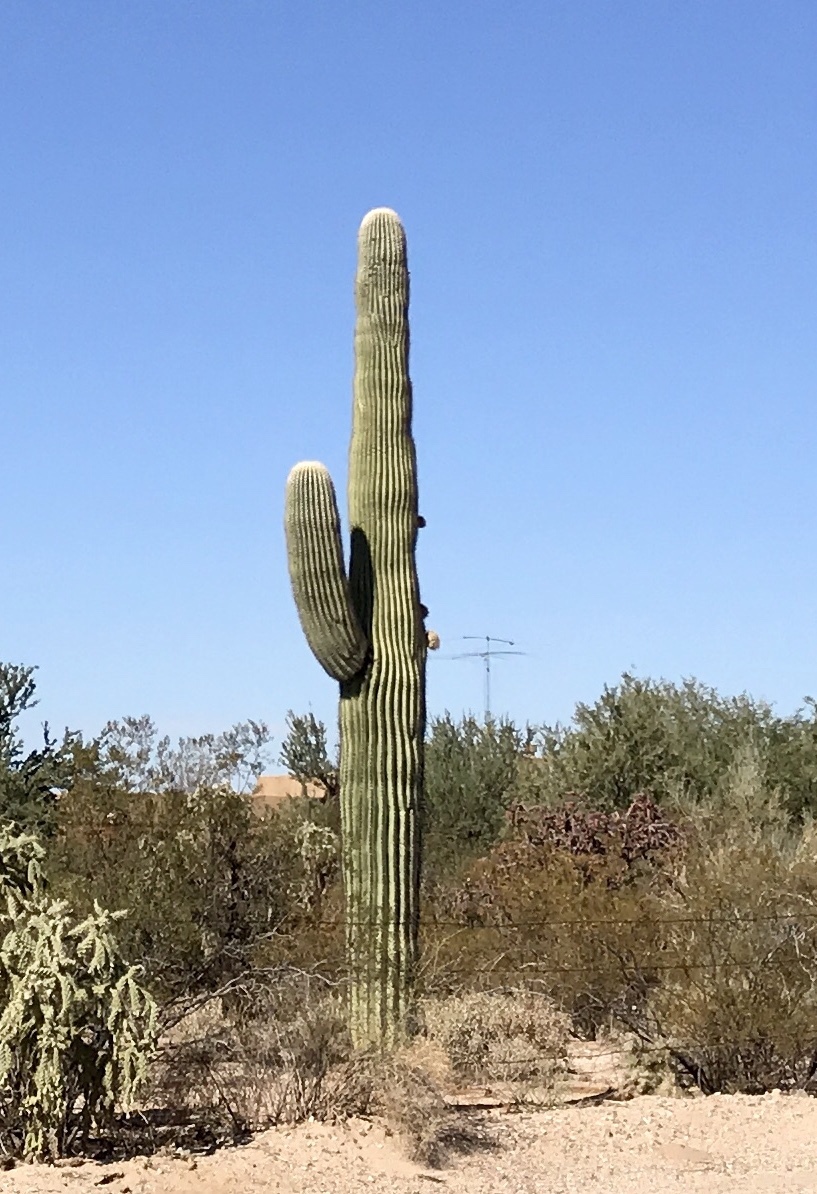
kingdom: Plantae
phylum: Tracheophyta
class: Magnoliopsida
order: Caryophyllales
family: Cactaceae
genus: Carnegiea
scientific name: Carnegiea gigantea
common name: Saguaro
